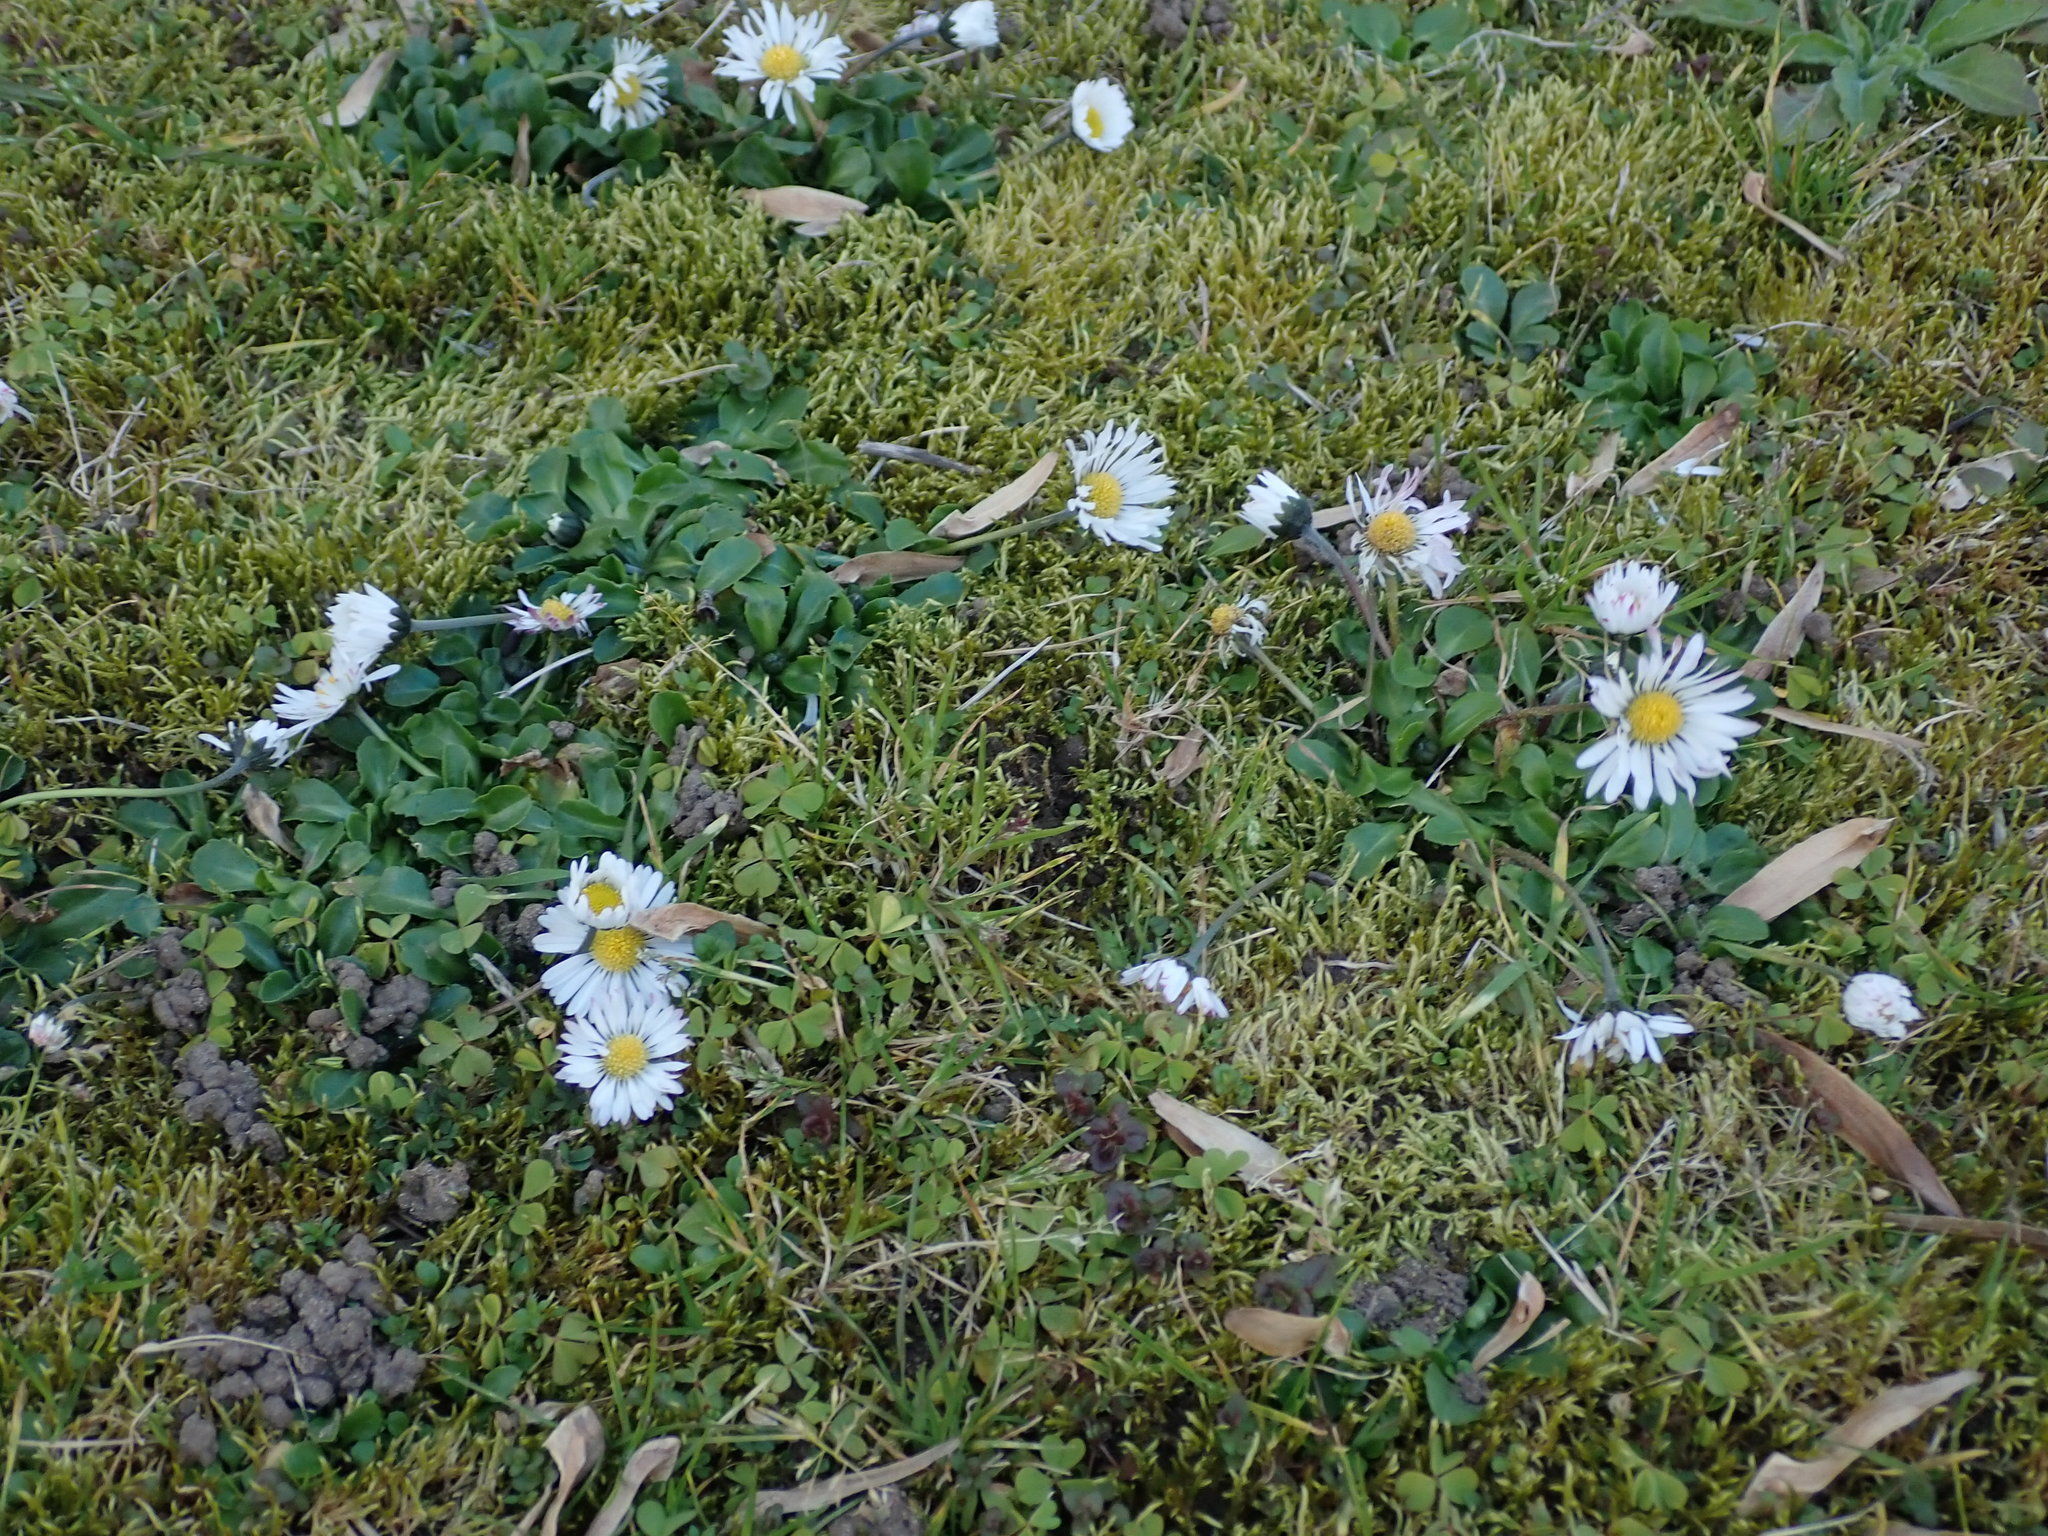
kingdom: Plantae
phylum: Tracheophyta
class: Magnoliopsida
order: Asterales
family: Asteraceae
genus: Bellis
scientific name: Bellis perennis
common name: Lawndaisy
